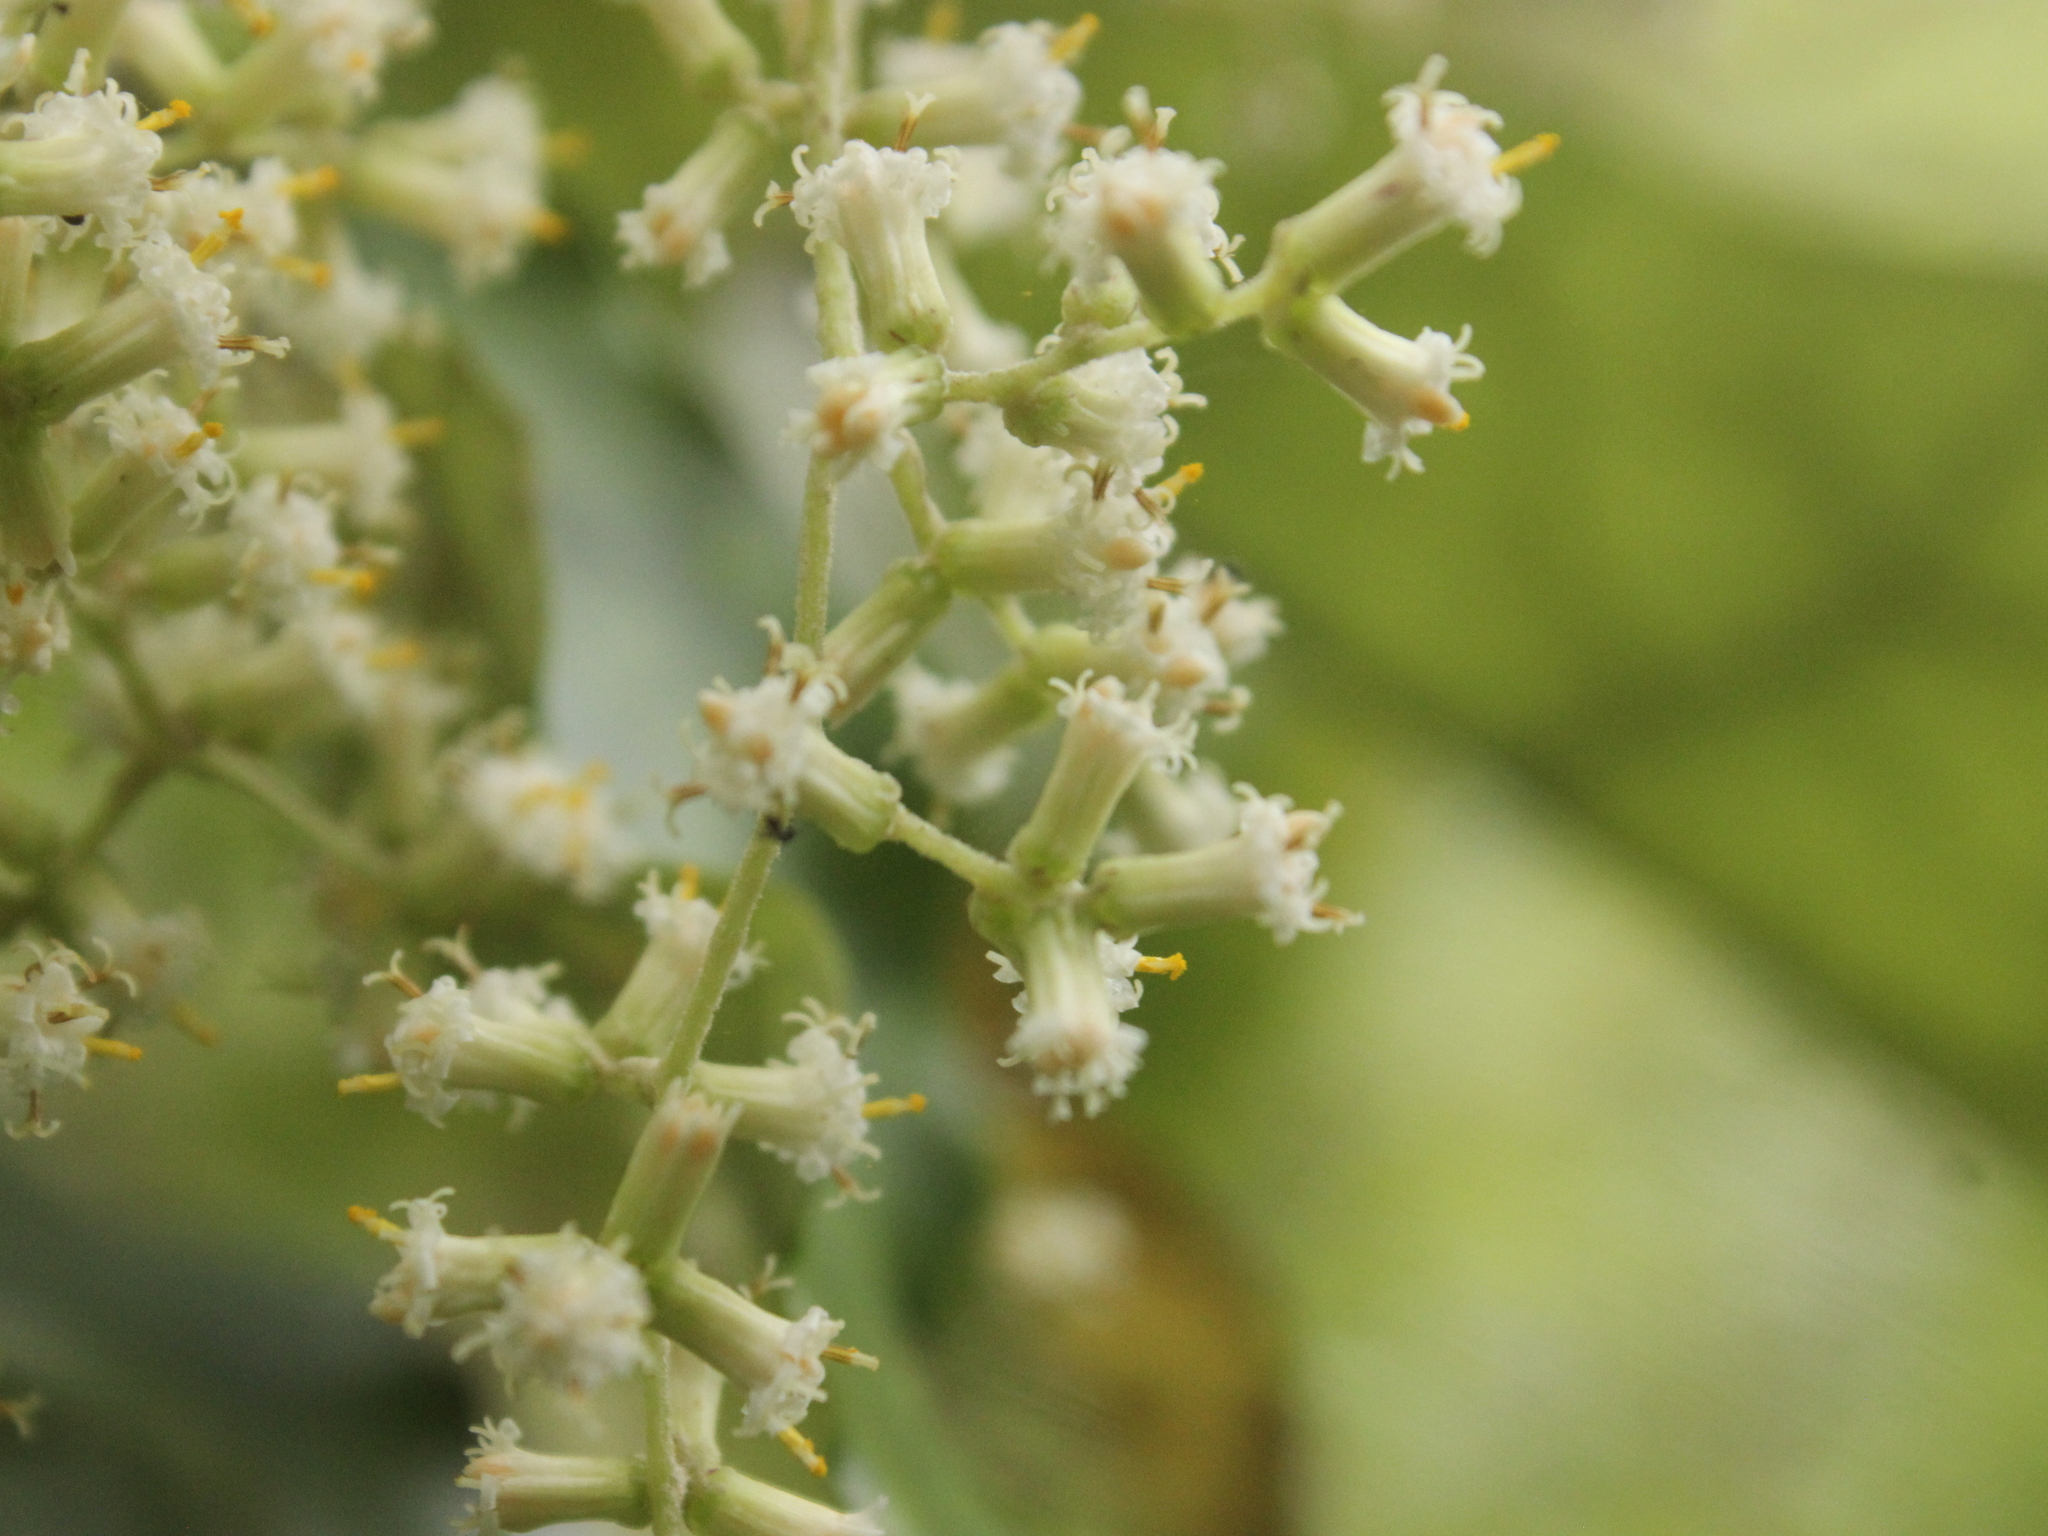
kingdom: Plantae
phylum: Tracheophyta
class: Magnoliopsida
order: Asterales
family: Asteraceae
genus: Brachyglottis
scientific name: Brachyglottis repanda
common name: Hedge ragwort
